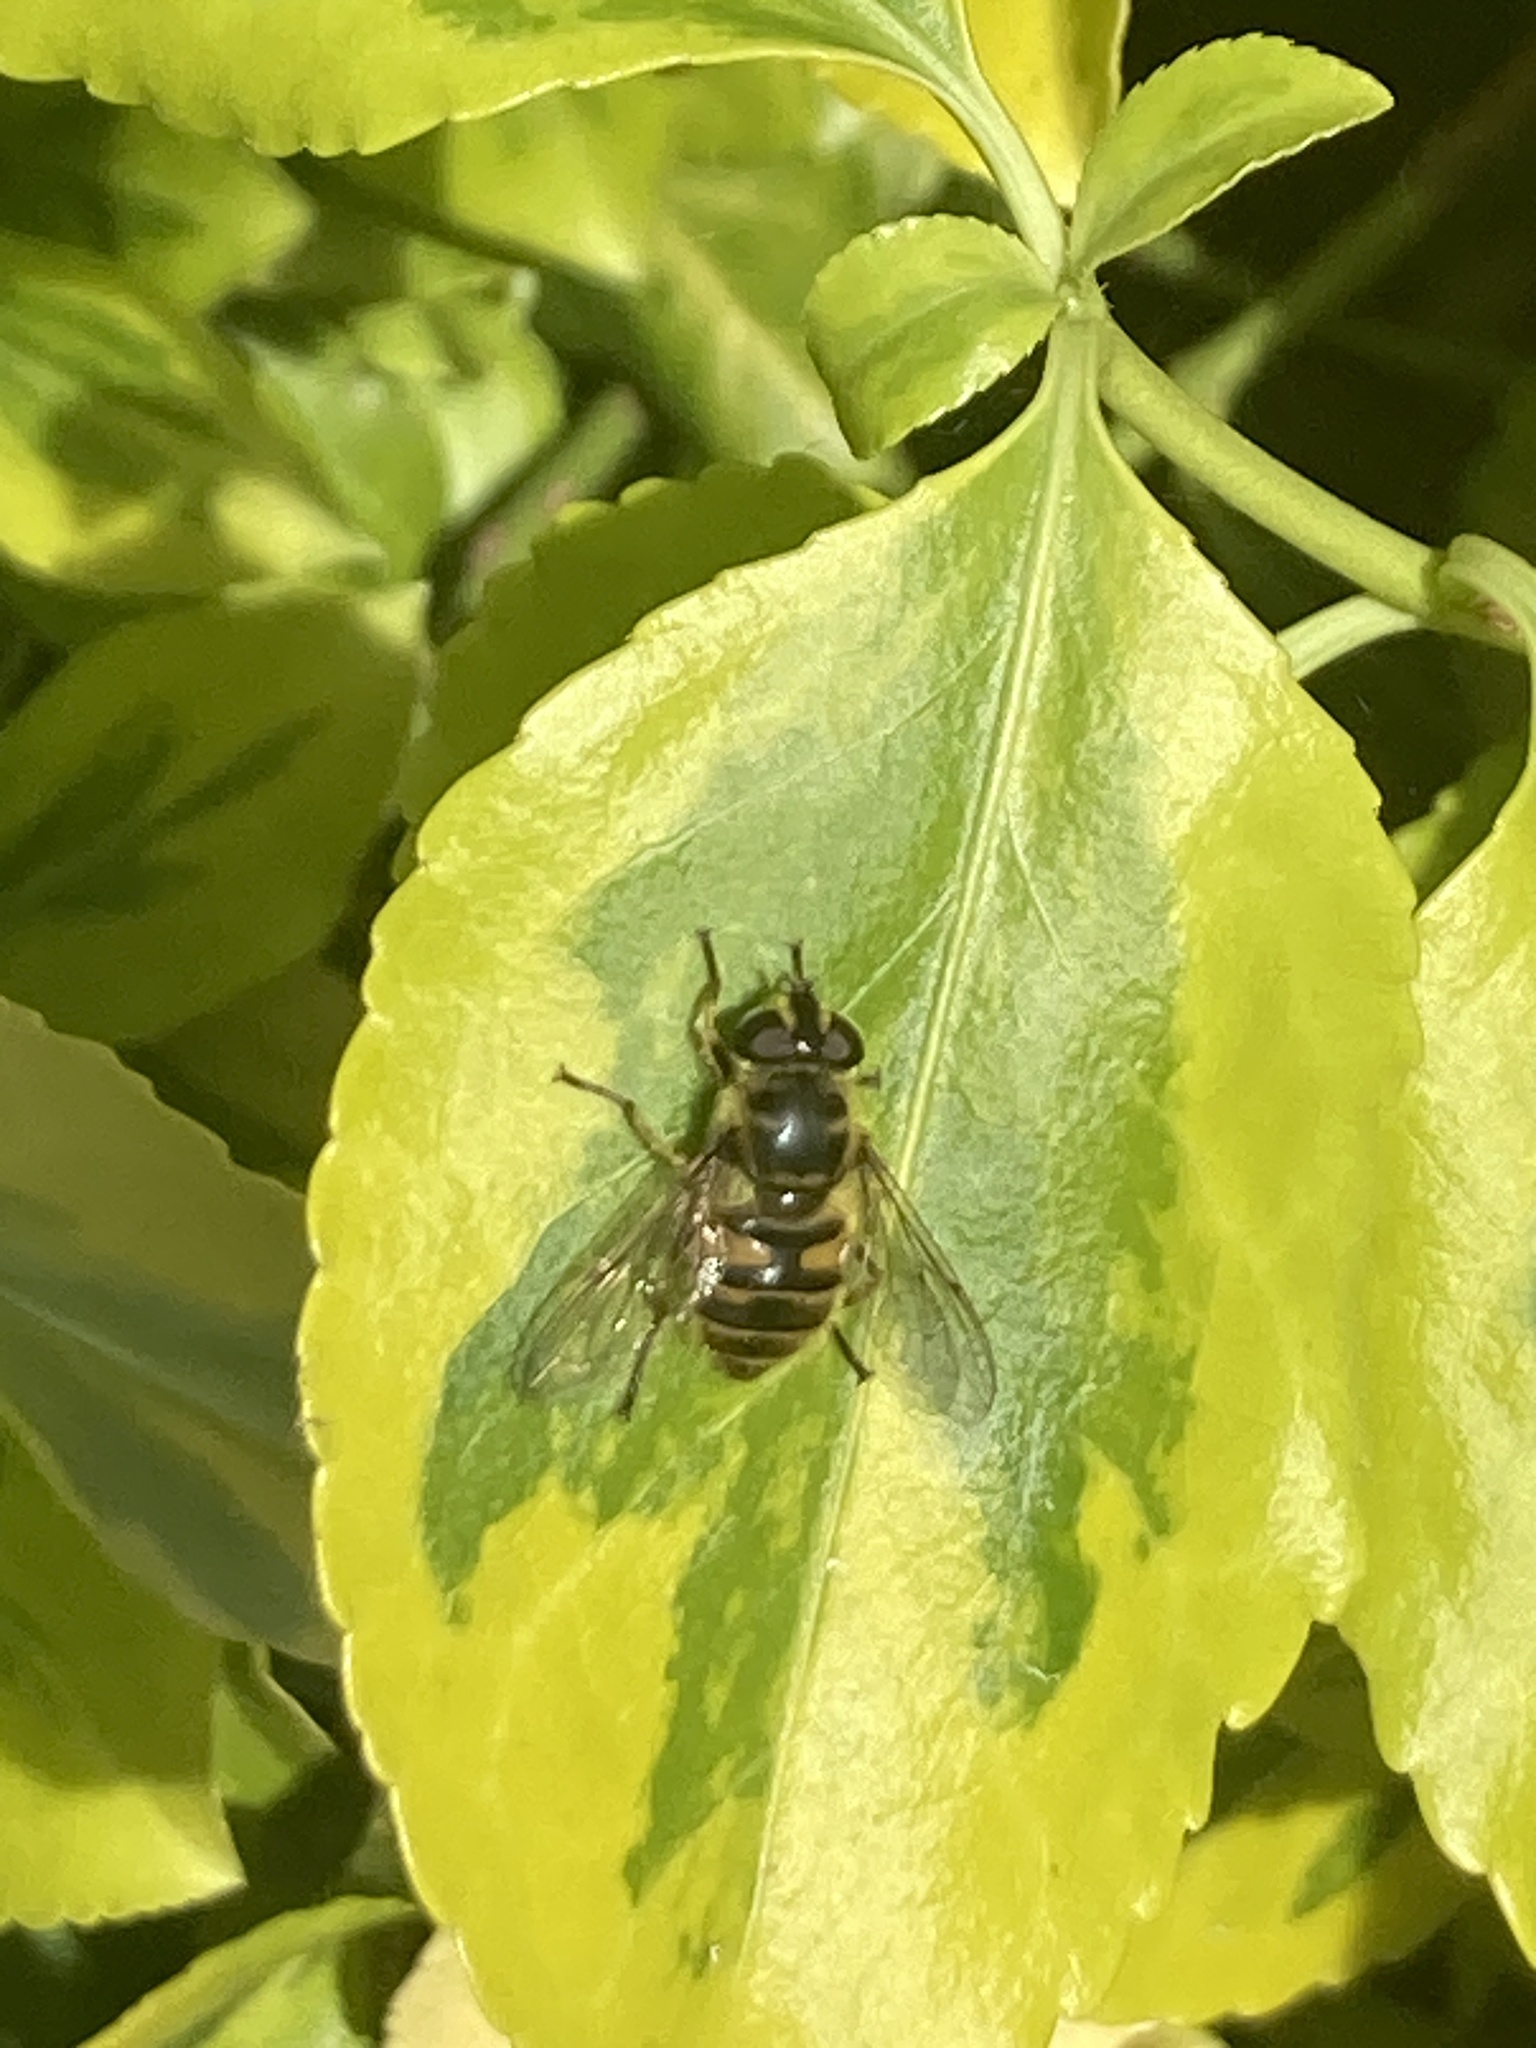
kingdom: Animalia
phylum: Arthropoda
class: Insecta
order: Diptera
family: Syrphidae
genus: Myathropa
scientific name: Myathropa florea
